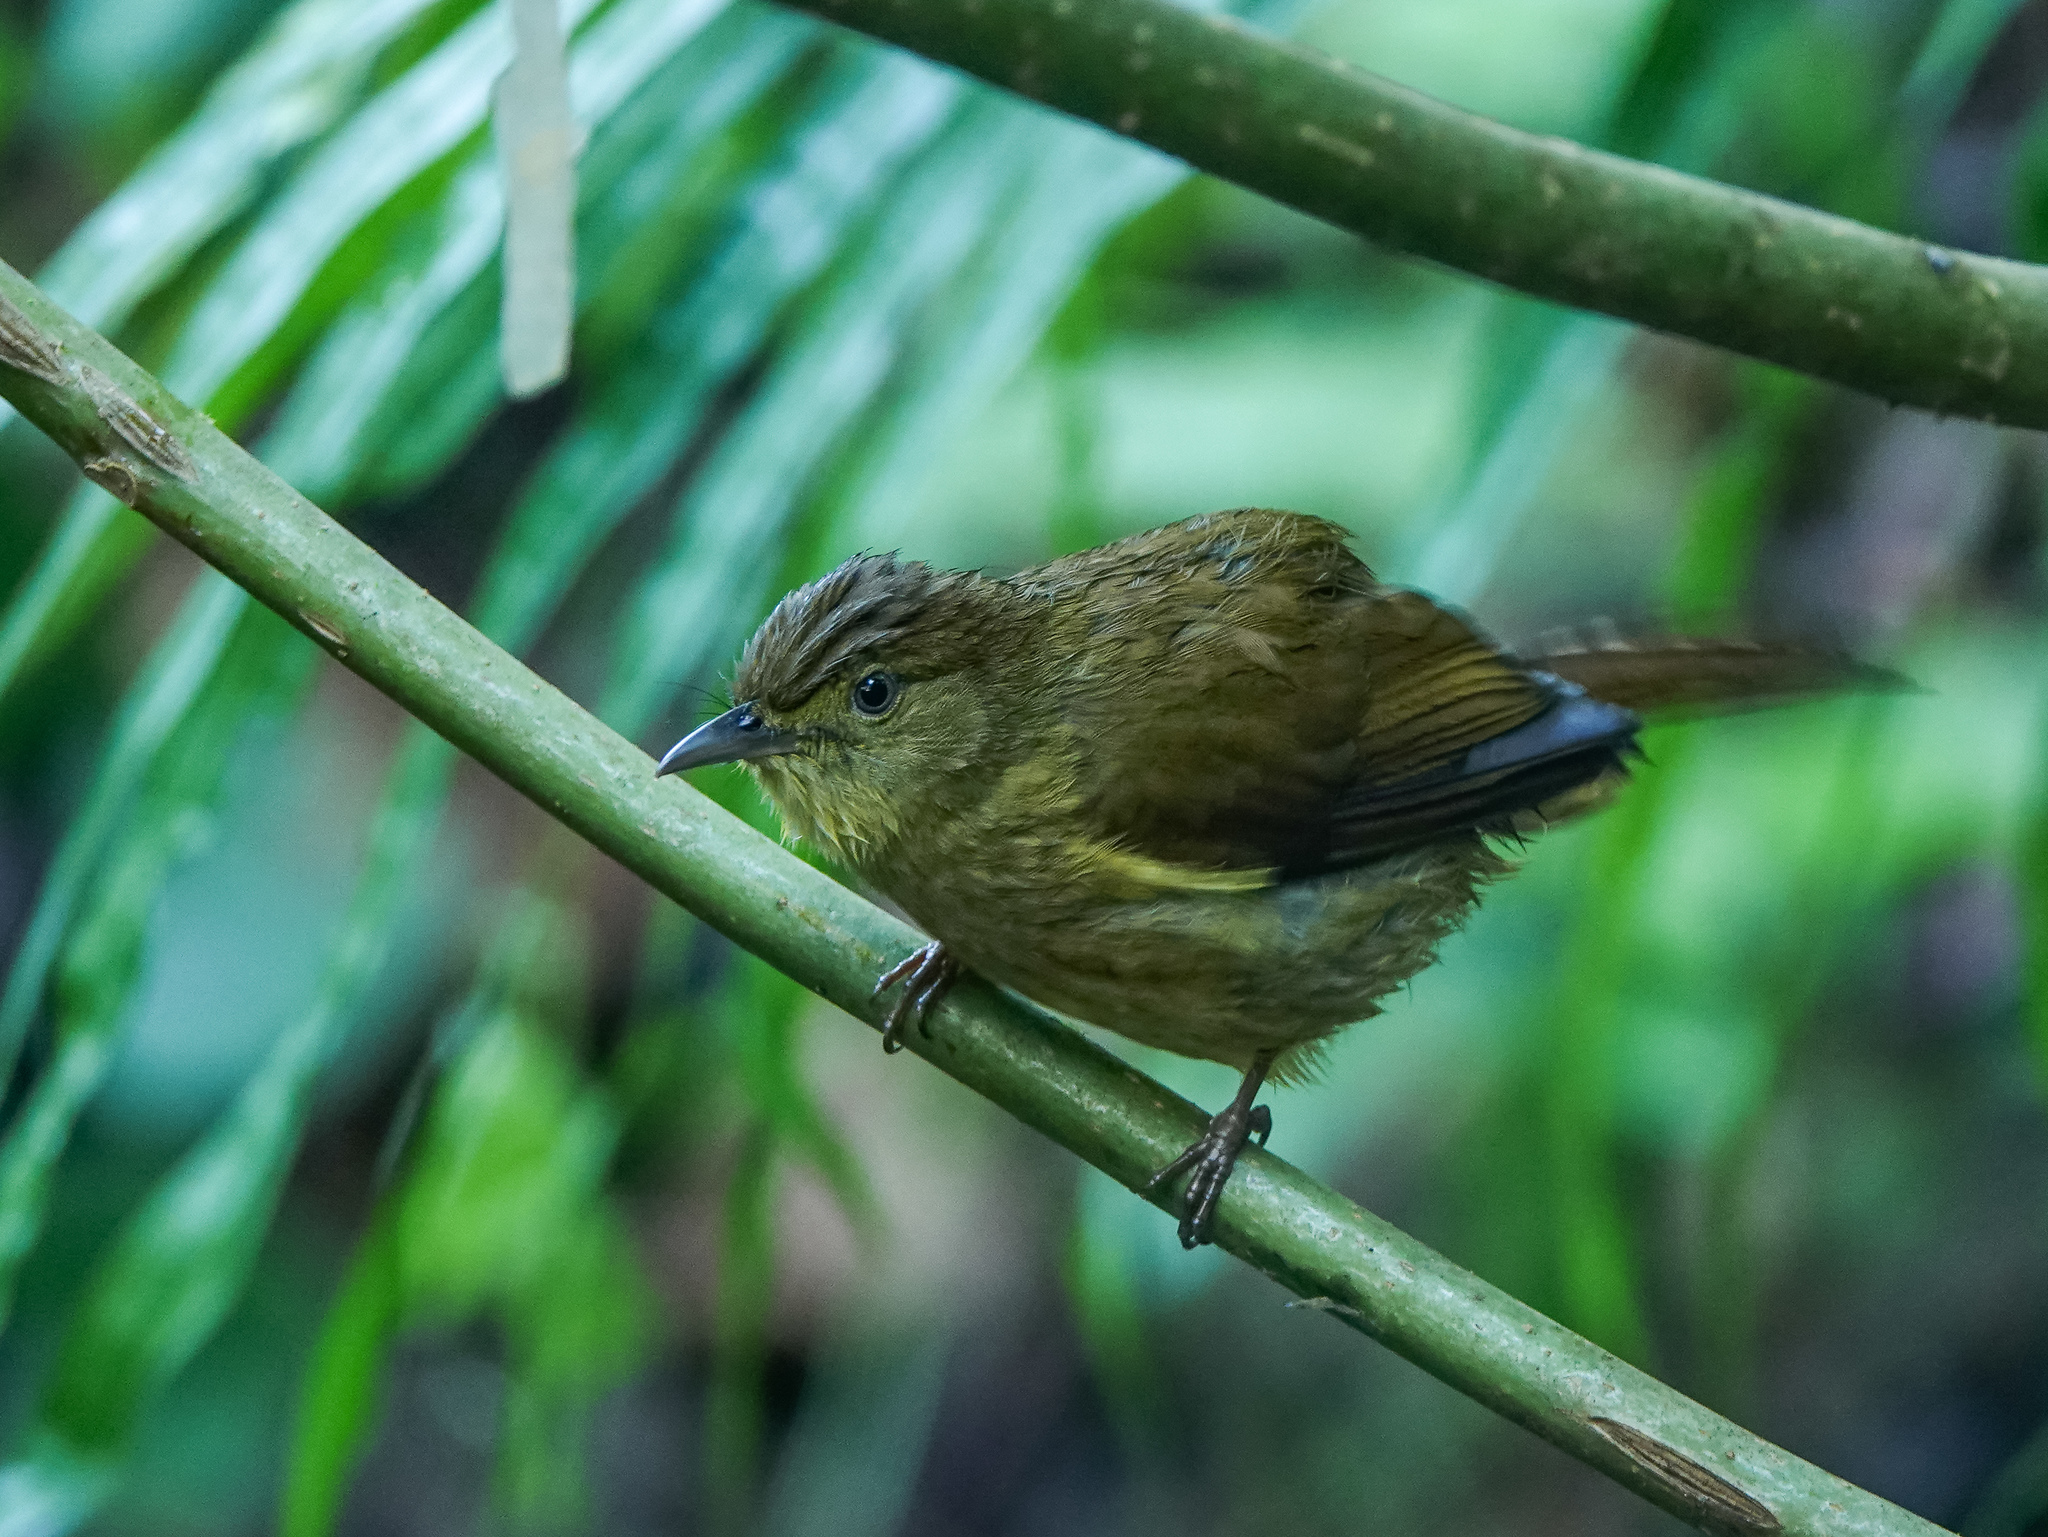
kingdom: Animalia
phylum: Chordata
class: Aves
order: Passeriformes
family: Pycnonotidae
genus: Iole
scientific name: Iole virescens
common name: Olive bulbul
